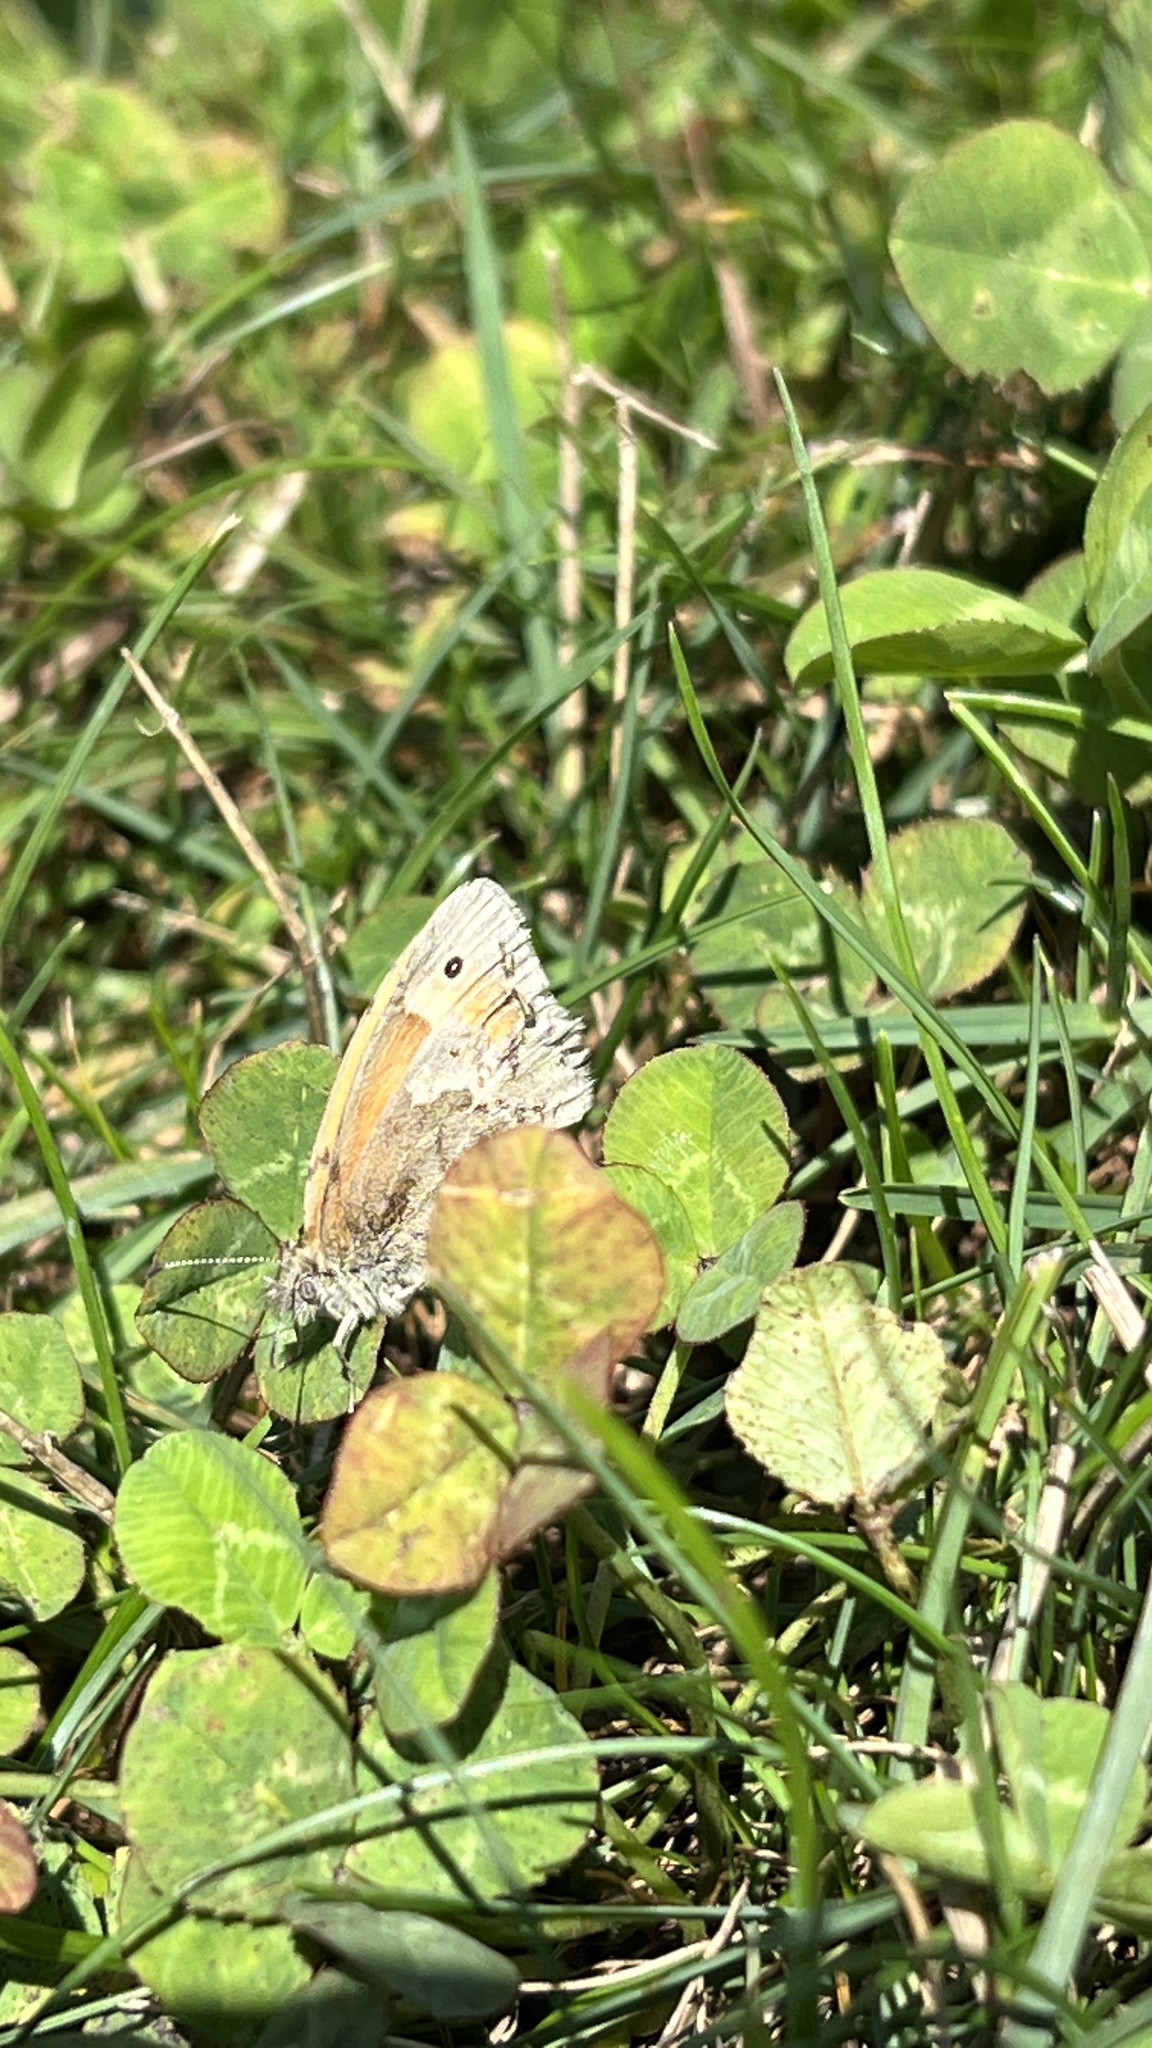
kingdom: Animalia
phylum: Arthropoda
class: Insecta
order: Lepidoptera
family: Nymphalidae
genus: Coenonympha
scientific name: Coenonympha california
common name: Common ringlet
